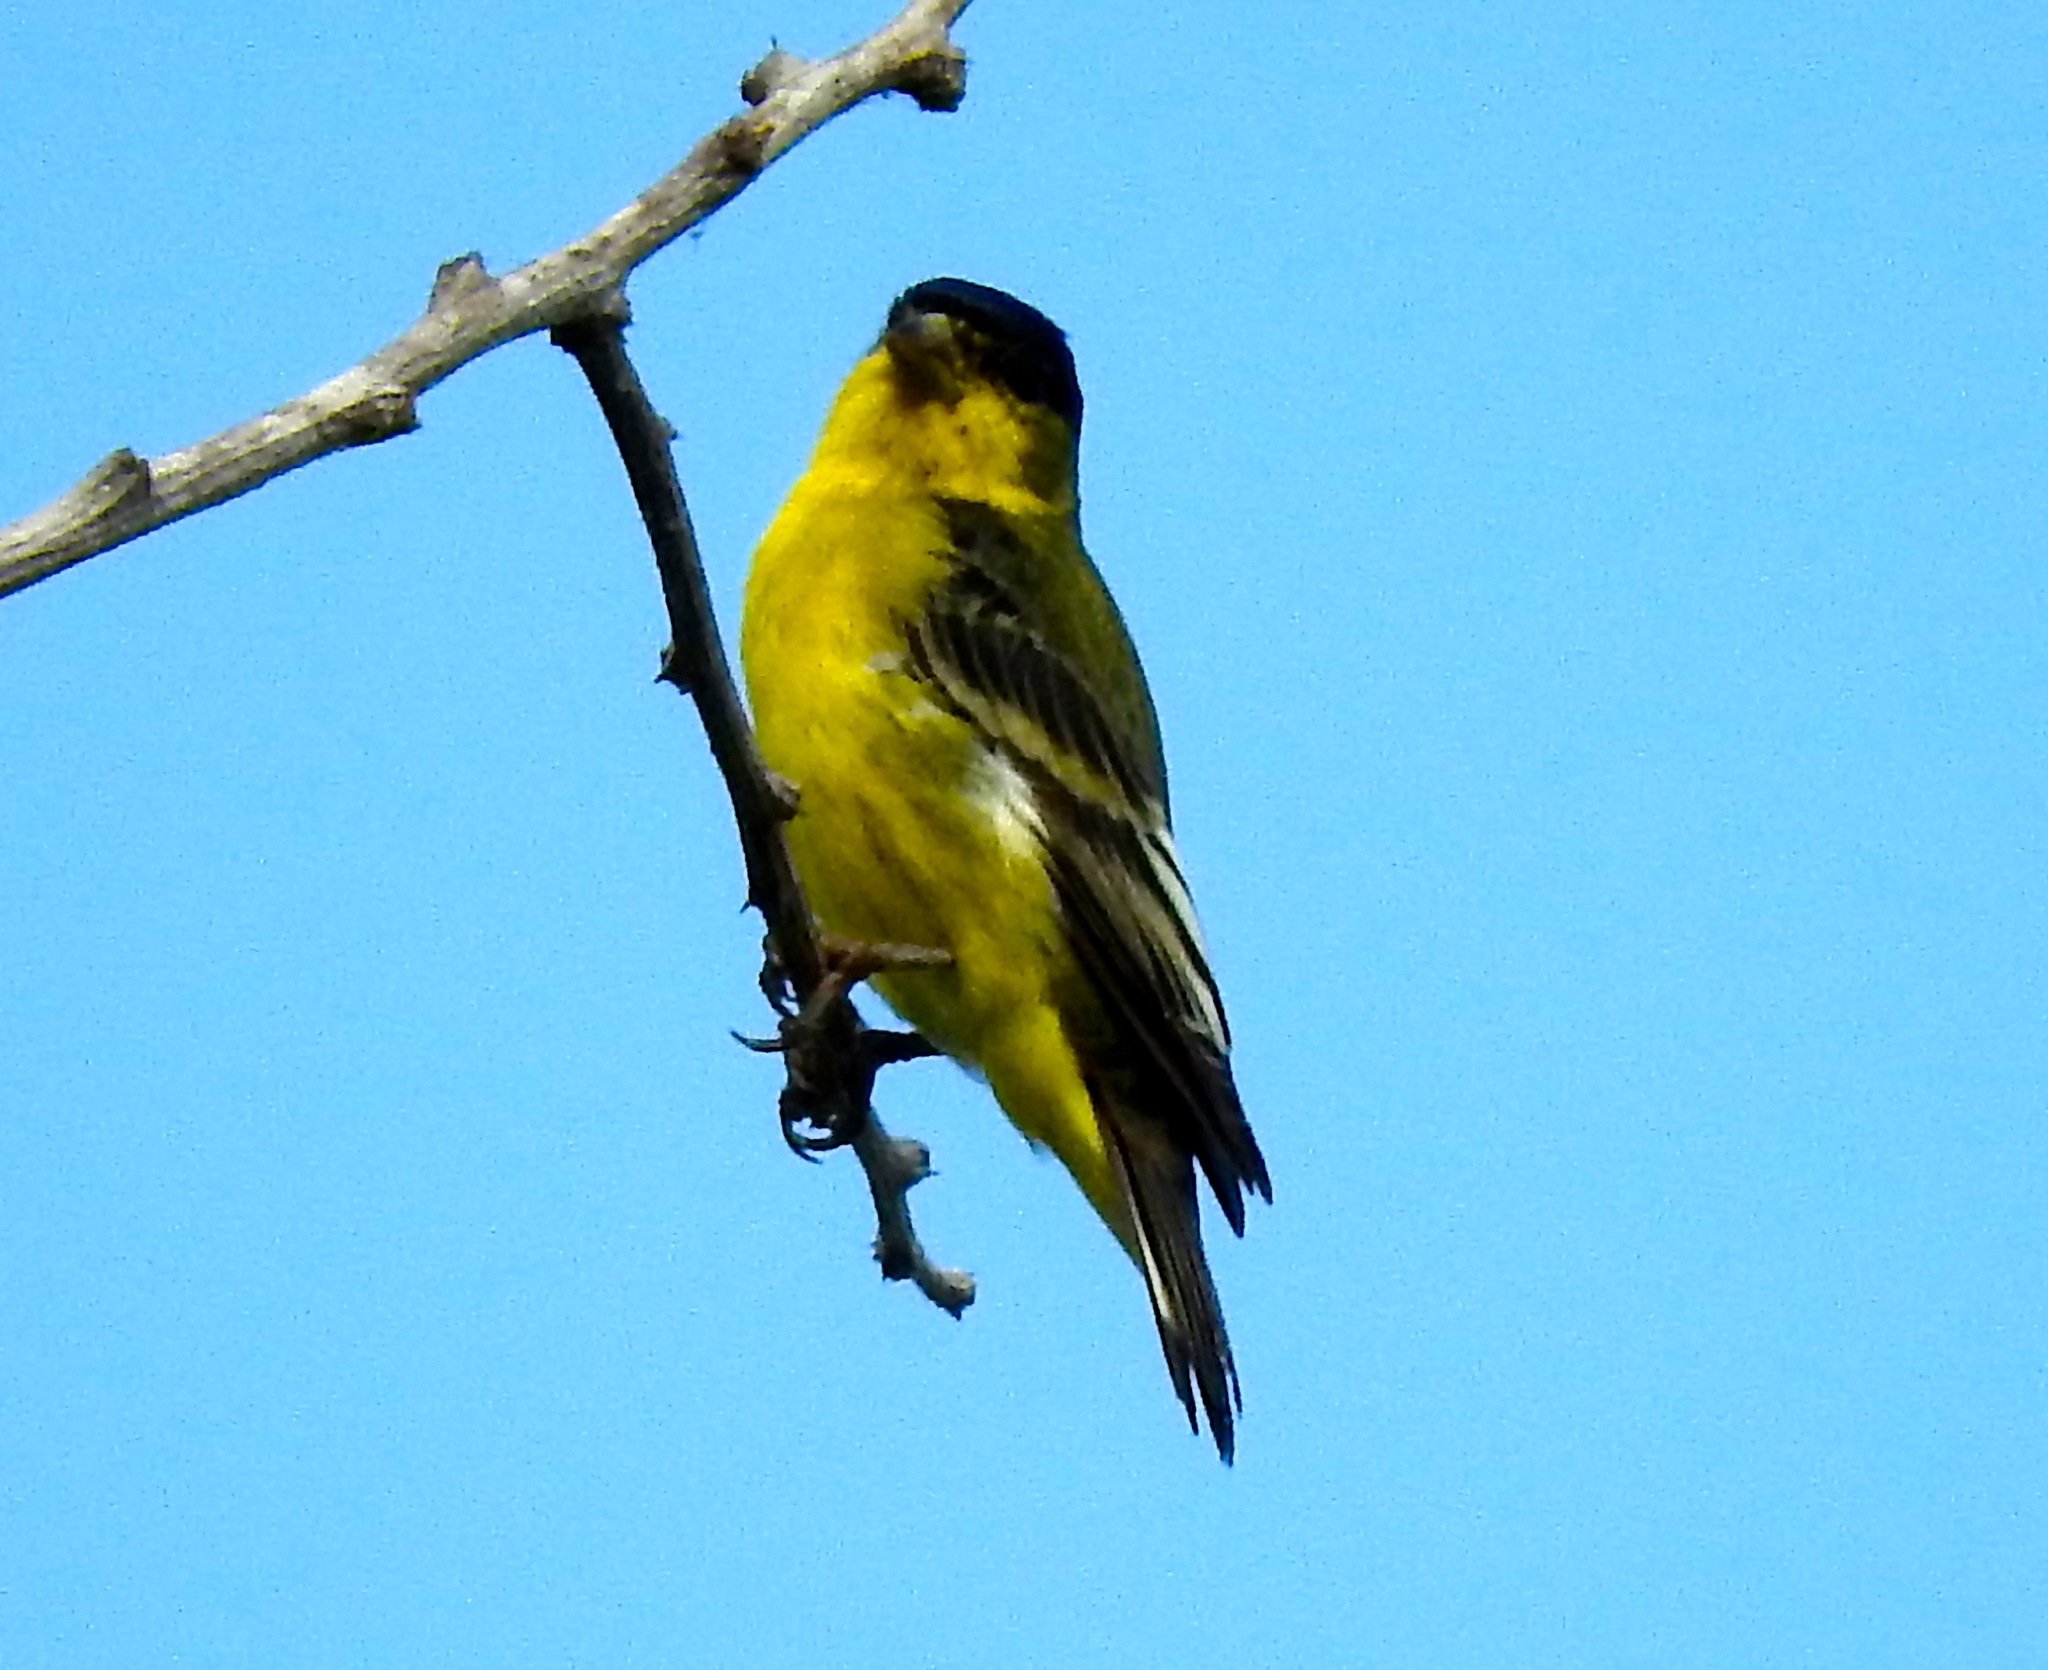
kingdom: Animalia
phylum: Chordata
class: Aves
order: Passeriformes
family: Fringillidae
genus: Spinus
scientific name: Spinus psaltria
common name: Lesser goldfinch
